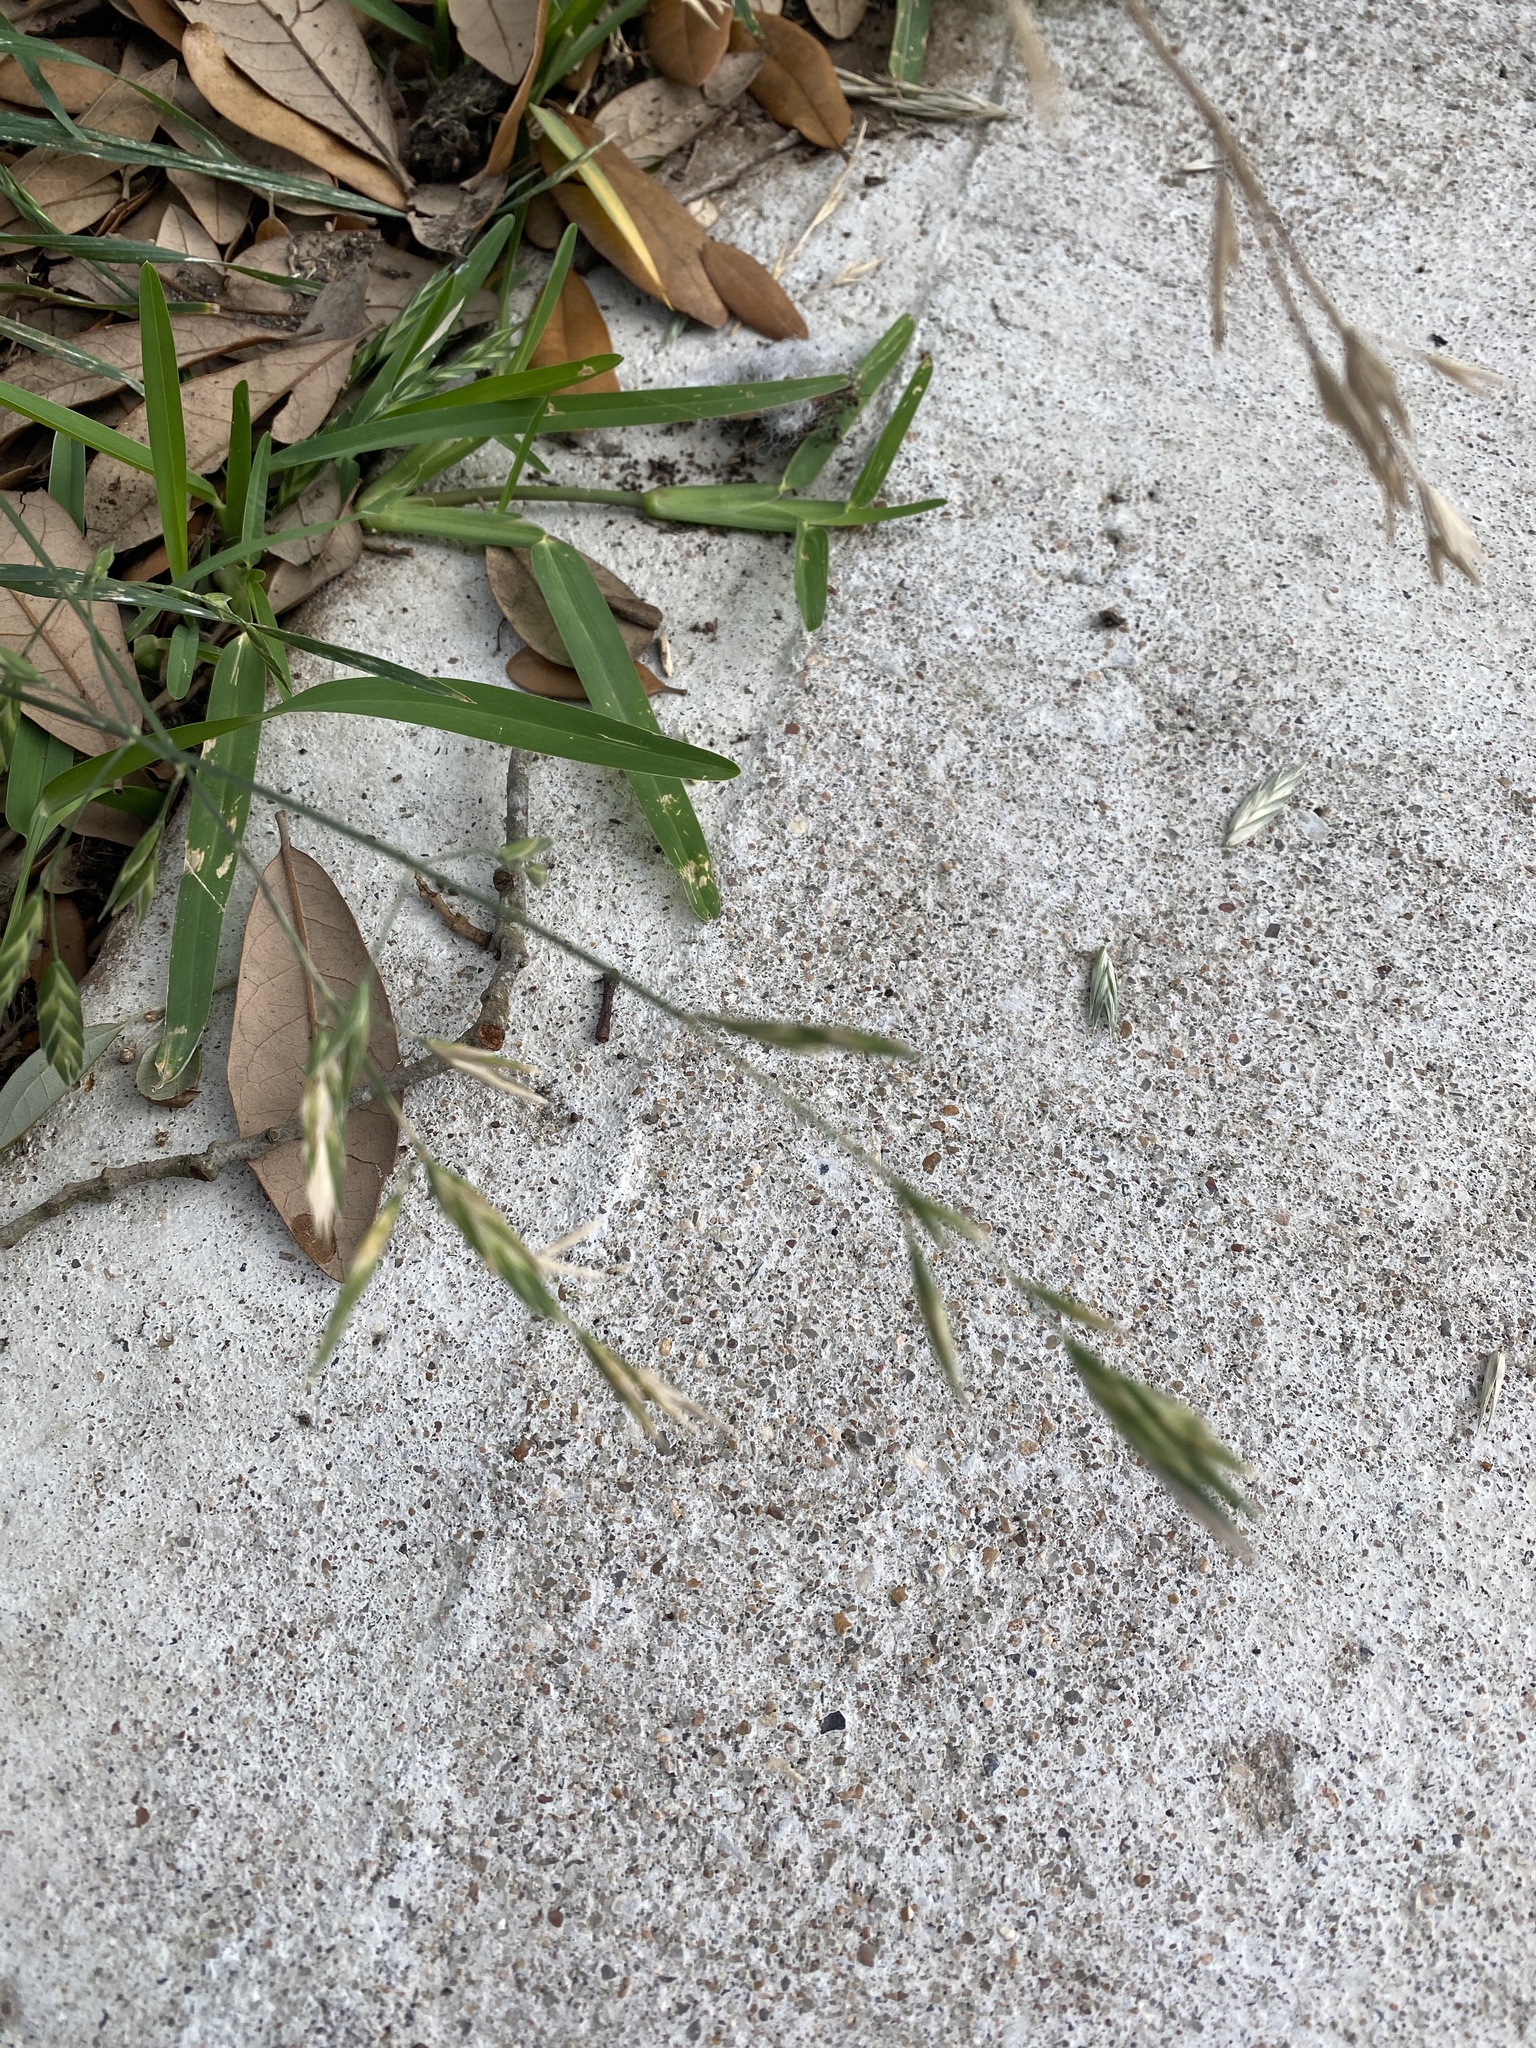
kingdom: Plantae
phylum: Tracheophyta
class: Liliopsida
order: Poales
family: Poaceae
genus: Bromus
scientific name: Bromus catharticus
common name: Rescuegrass
